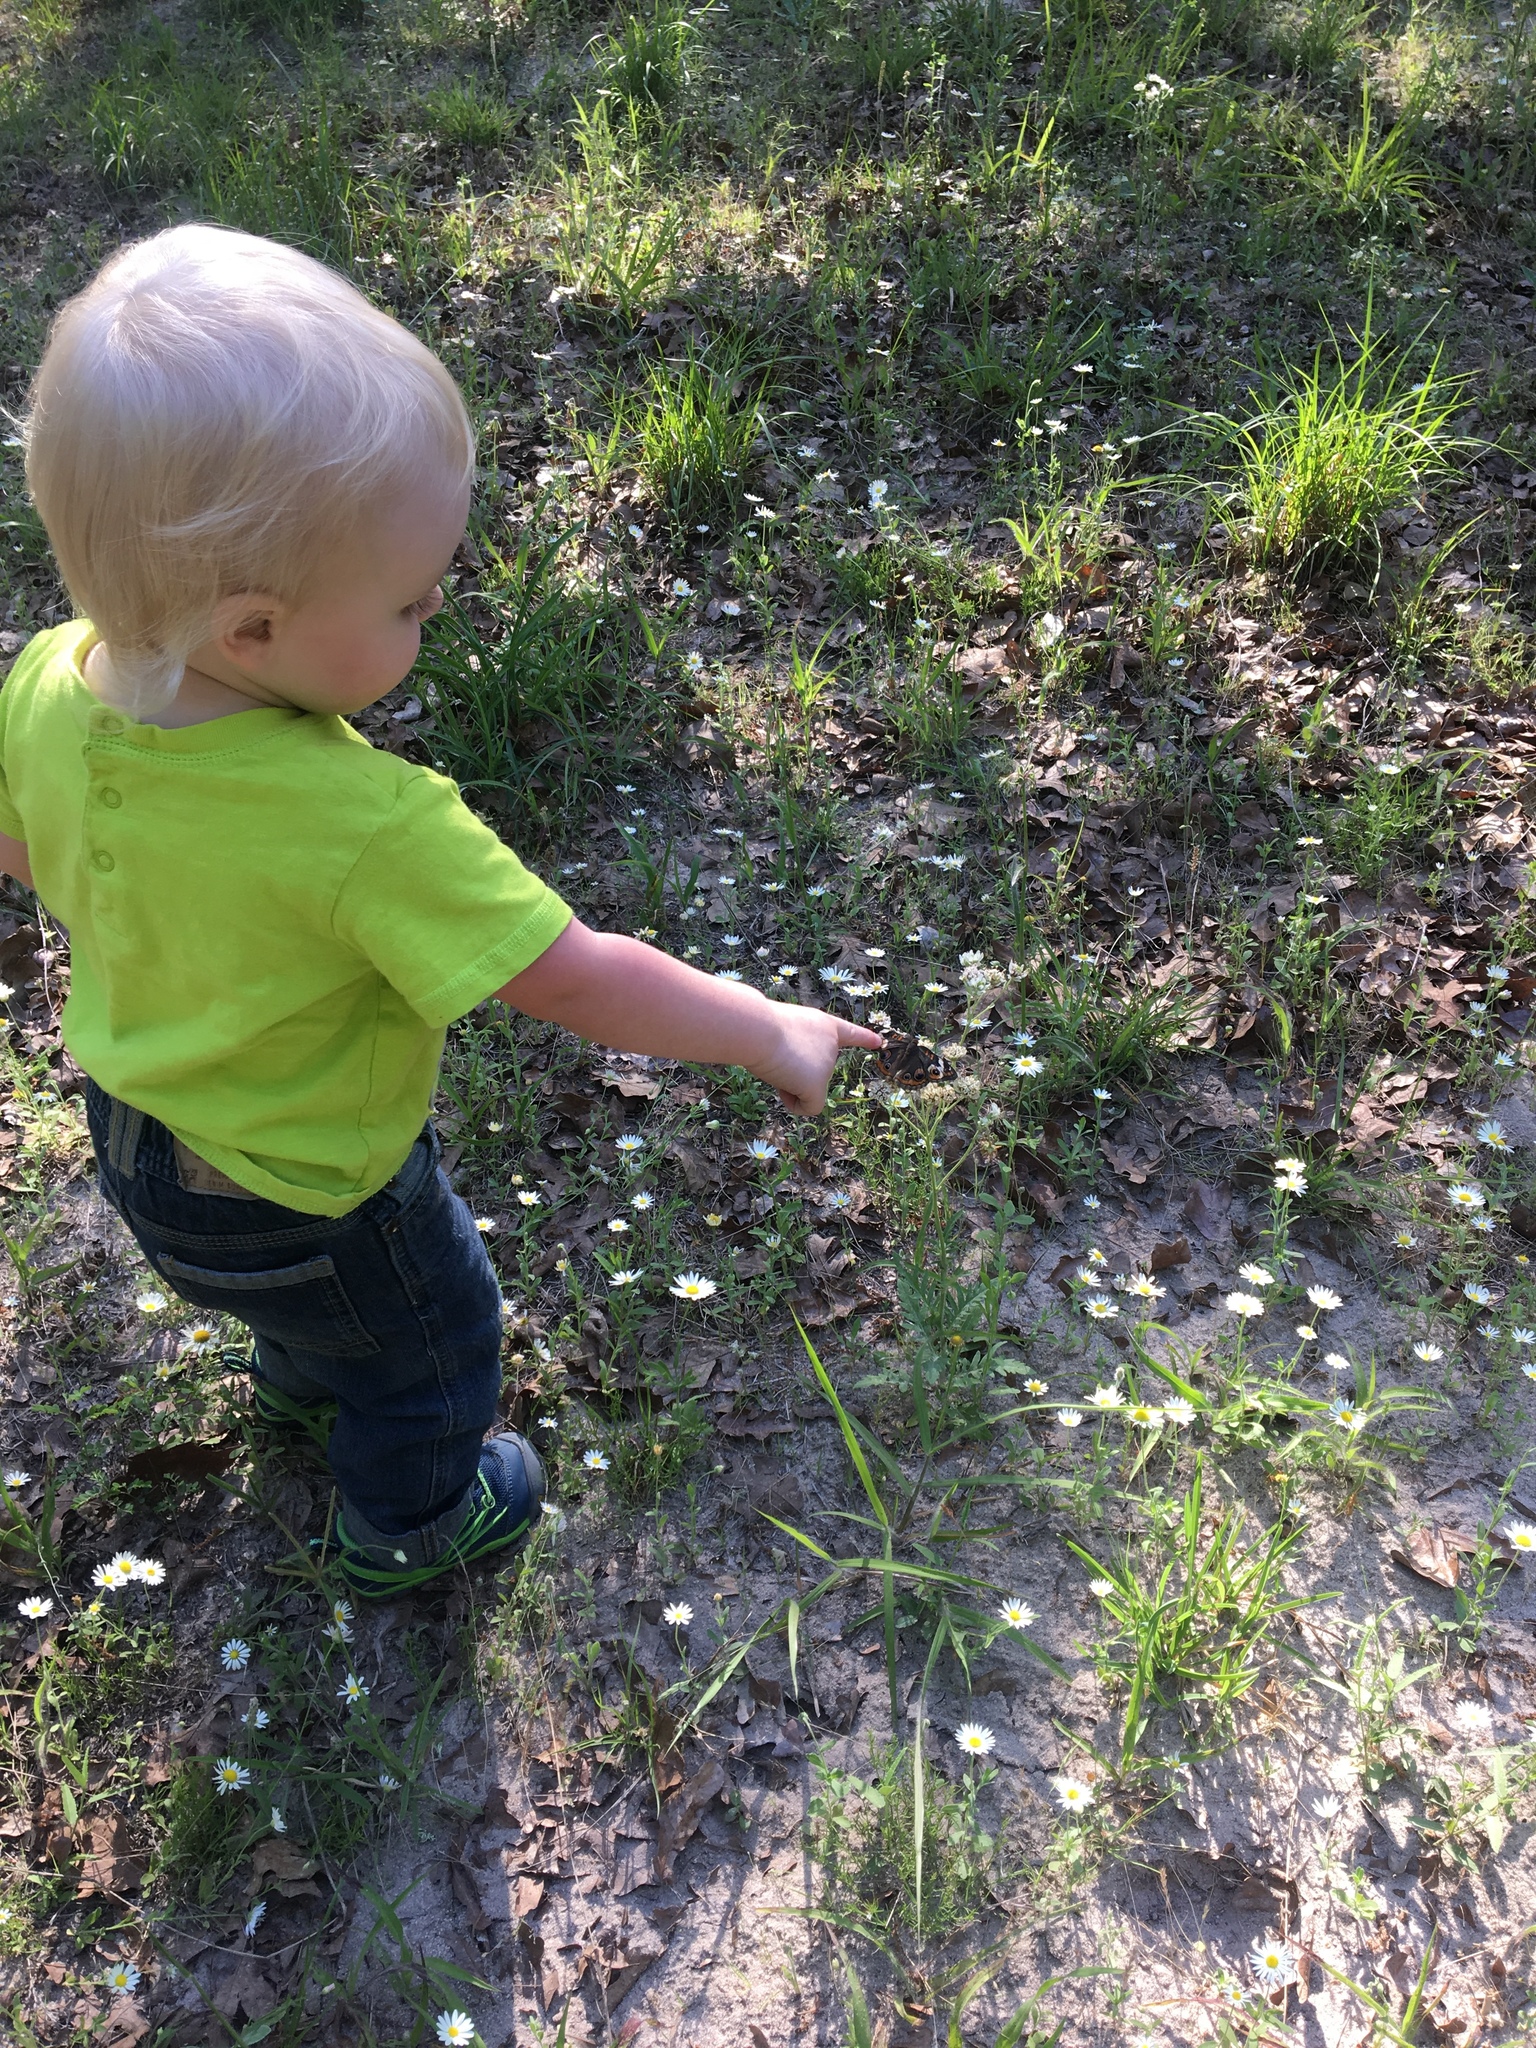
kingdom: Animalia
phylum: Arthropoda
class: Insecta
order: Lepidoptera
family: Nymphalidae
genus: Junonia
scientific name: Junonia coenia
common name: Common buckeye
